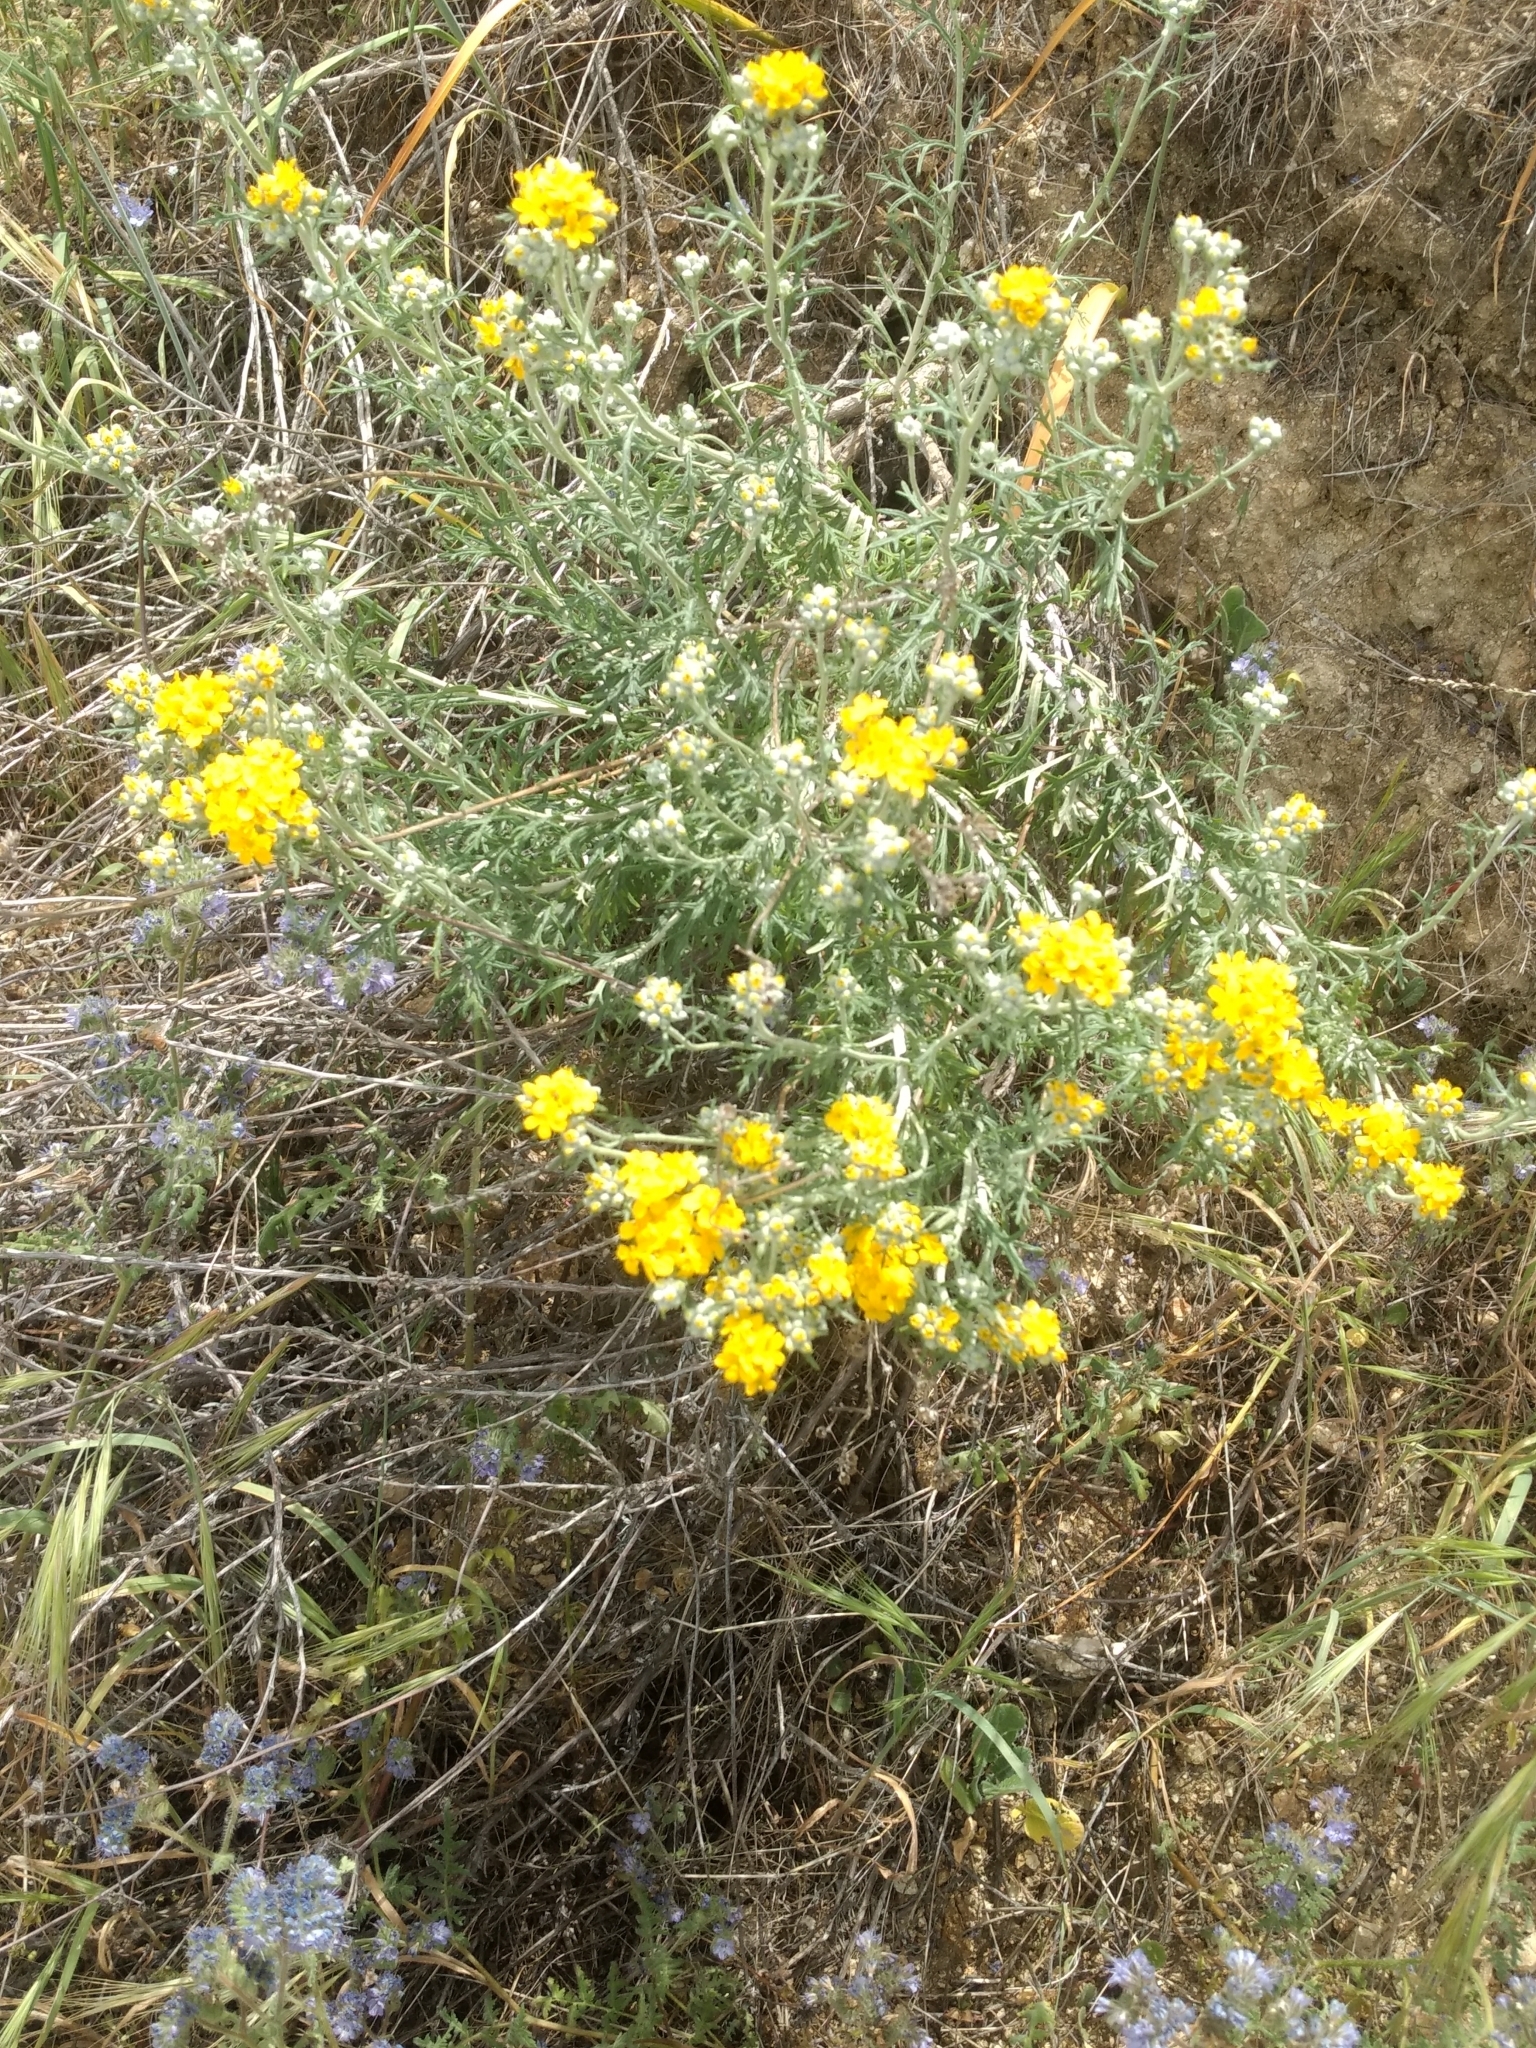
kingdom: Plantae
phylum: Tracheophyta
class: Magnoliopsida
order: Asterales
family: Asteraceae
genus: Eriophyllum
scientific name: Eriophyllum confertiflorum
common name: Golden-yarrow
